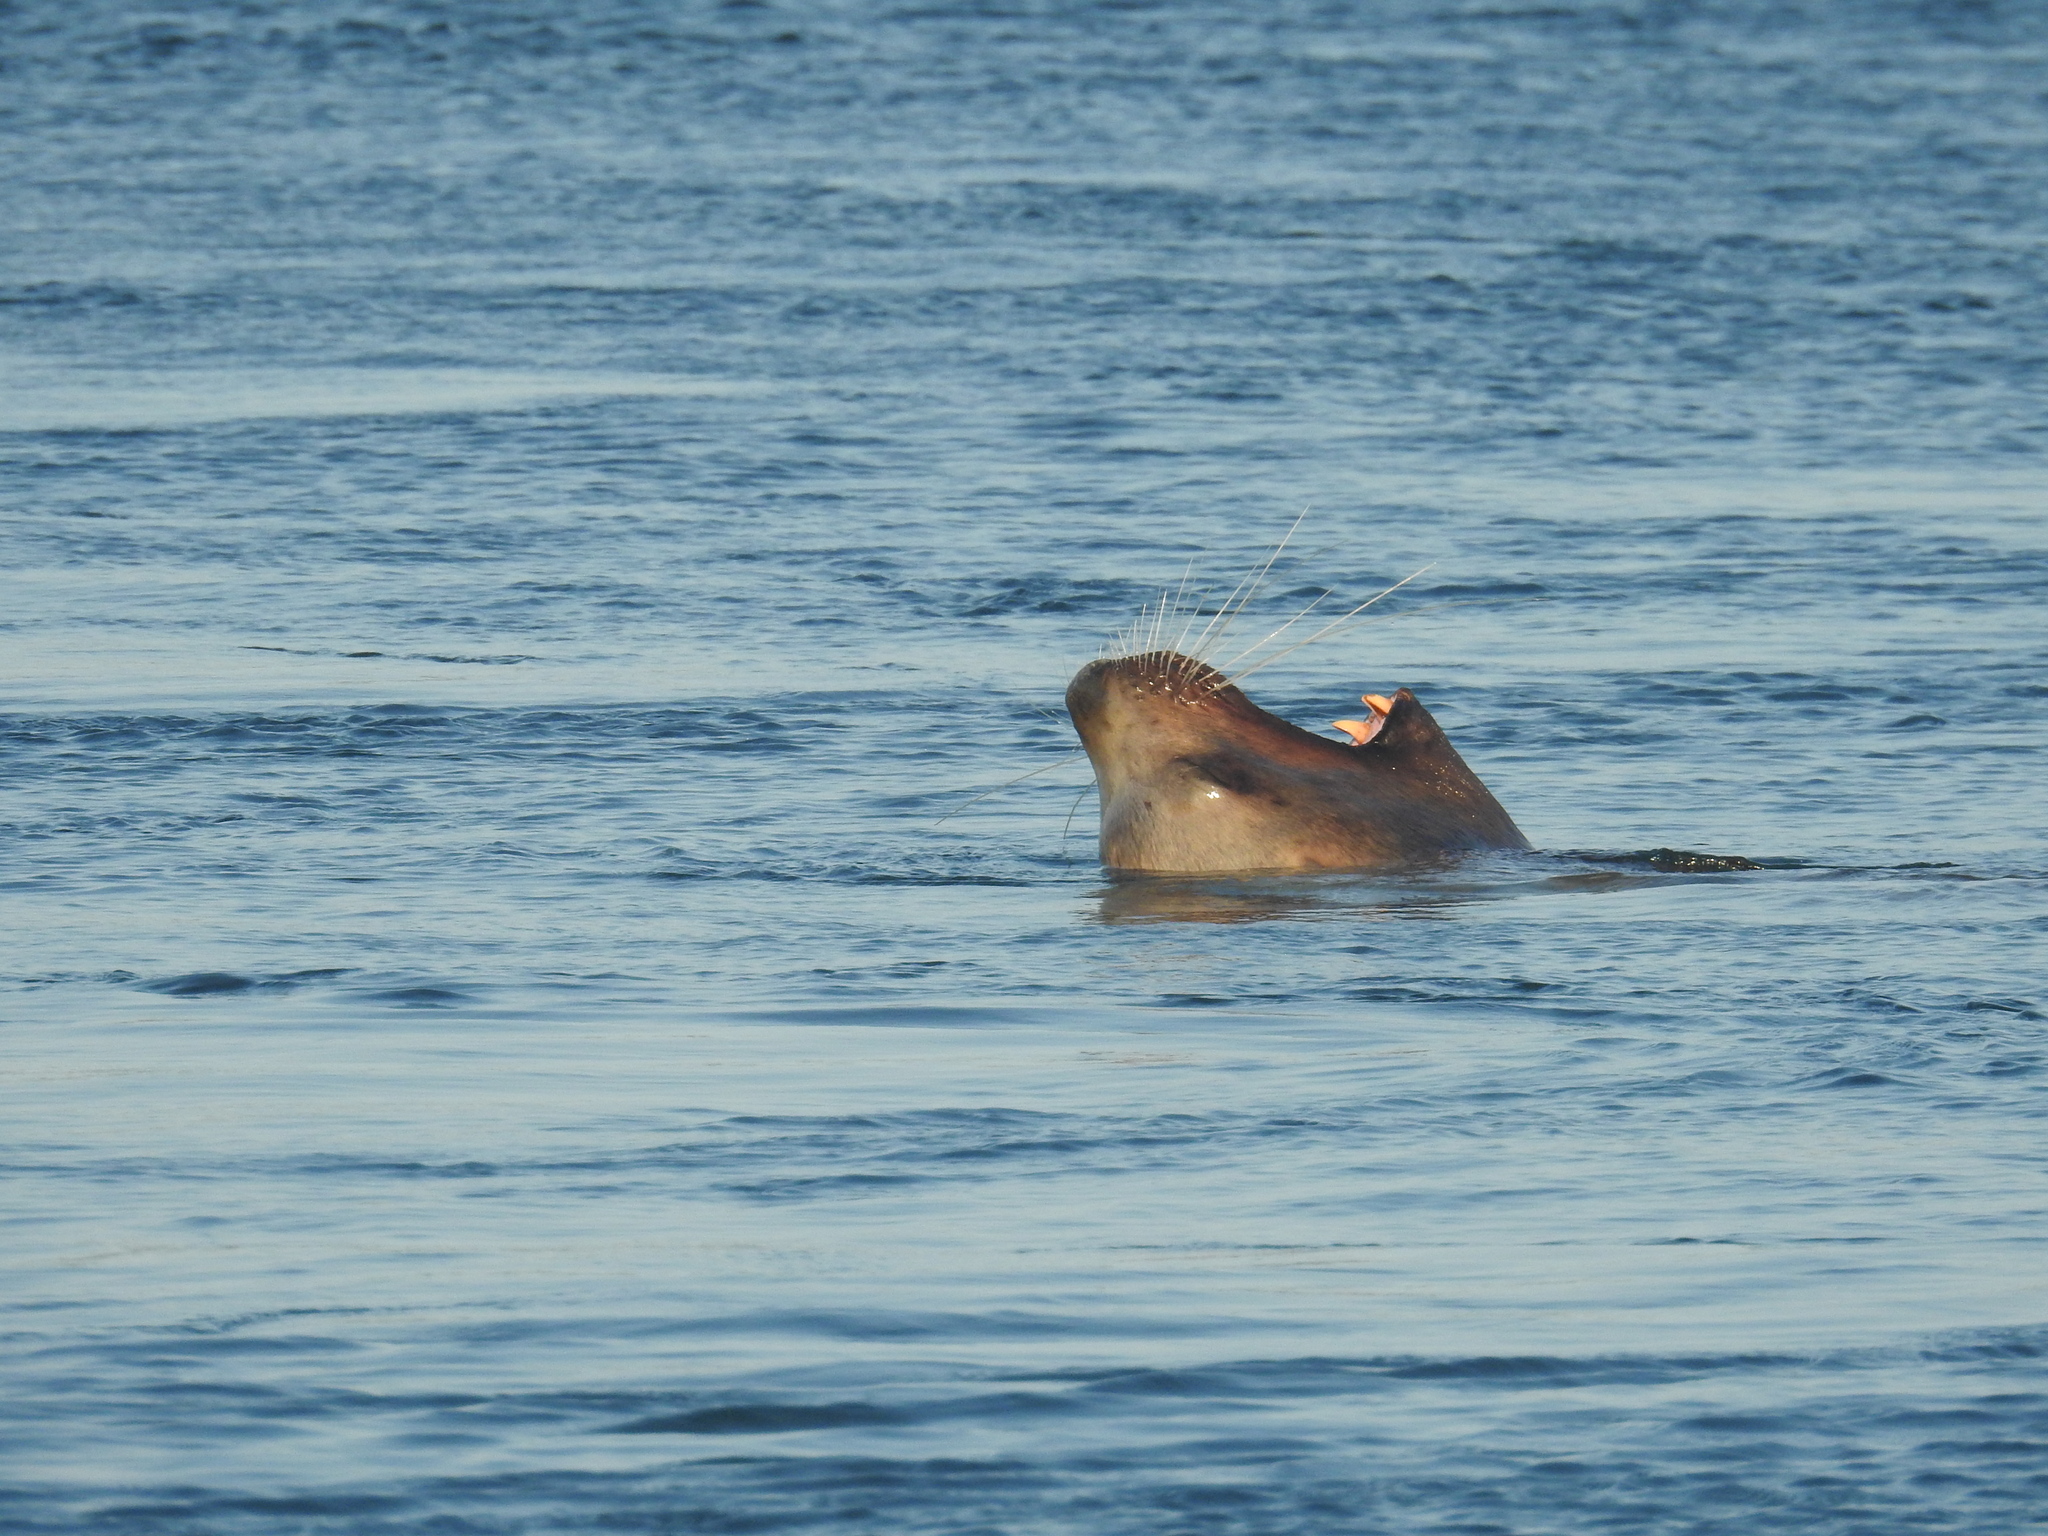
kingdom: Animalia
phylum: Chordata
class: Mammalia
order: Carnivora
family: Otariidae
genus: Eumetopias
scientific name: Eumetopias jubatus
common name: Steller sea lion
